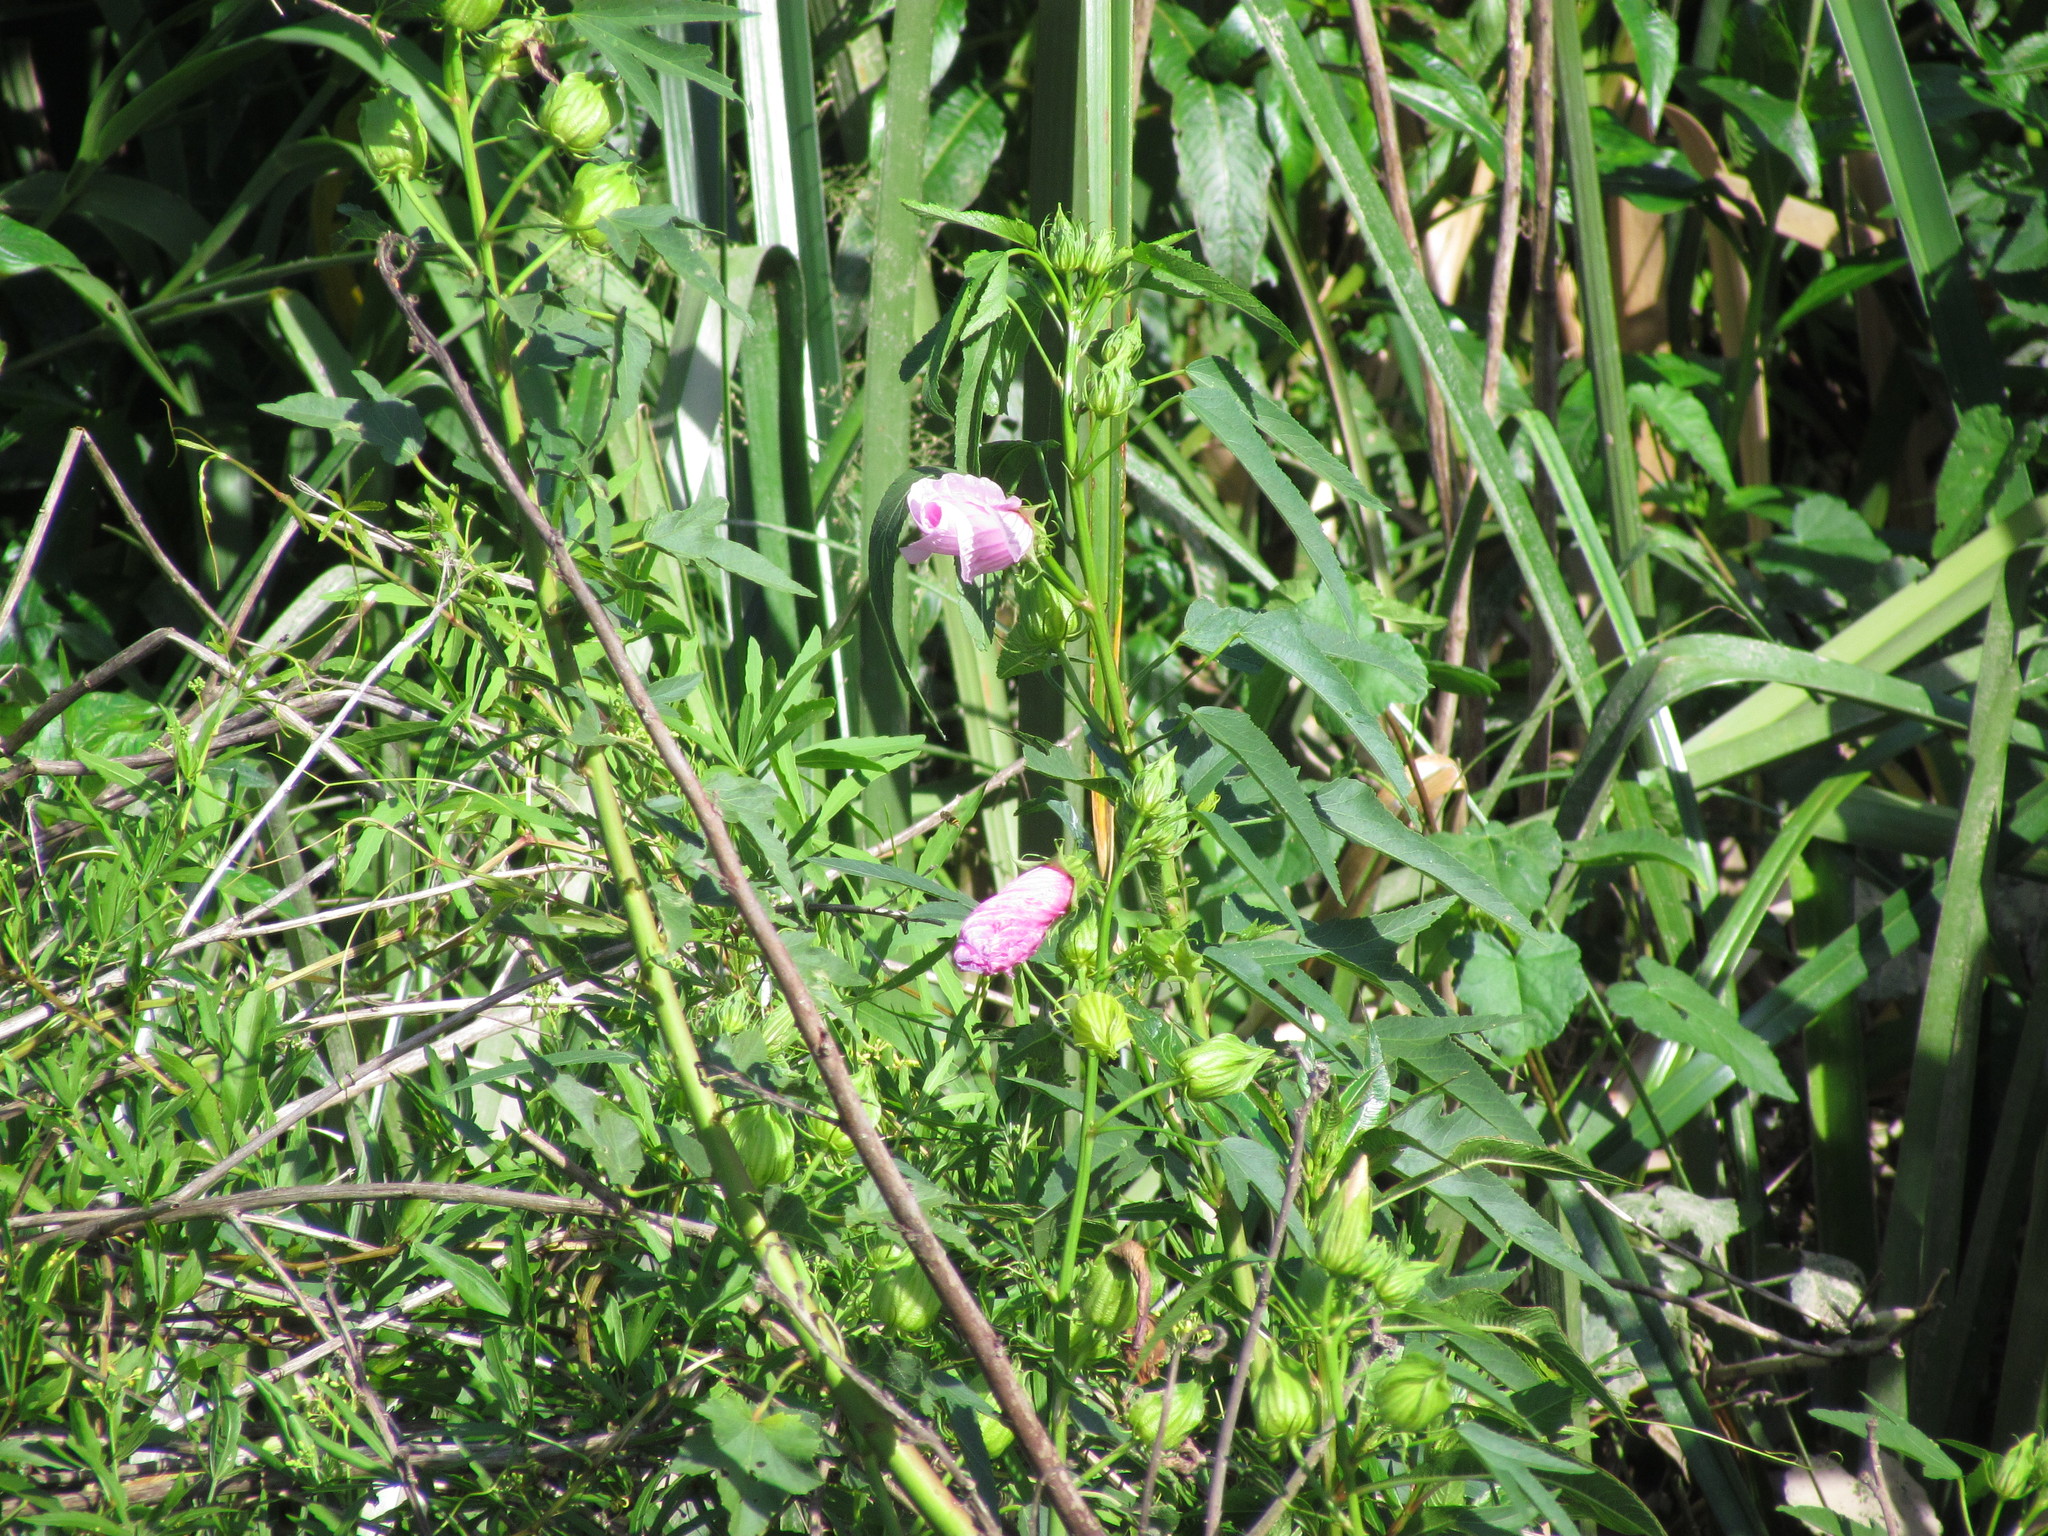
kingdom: Plantae
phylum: Tracheophyta
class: Magnoliopsida
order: Malvales
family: Malvaceae
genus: Hibiscus
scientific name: Hibiscus striatus
